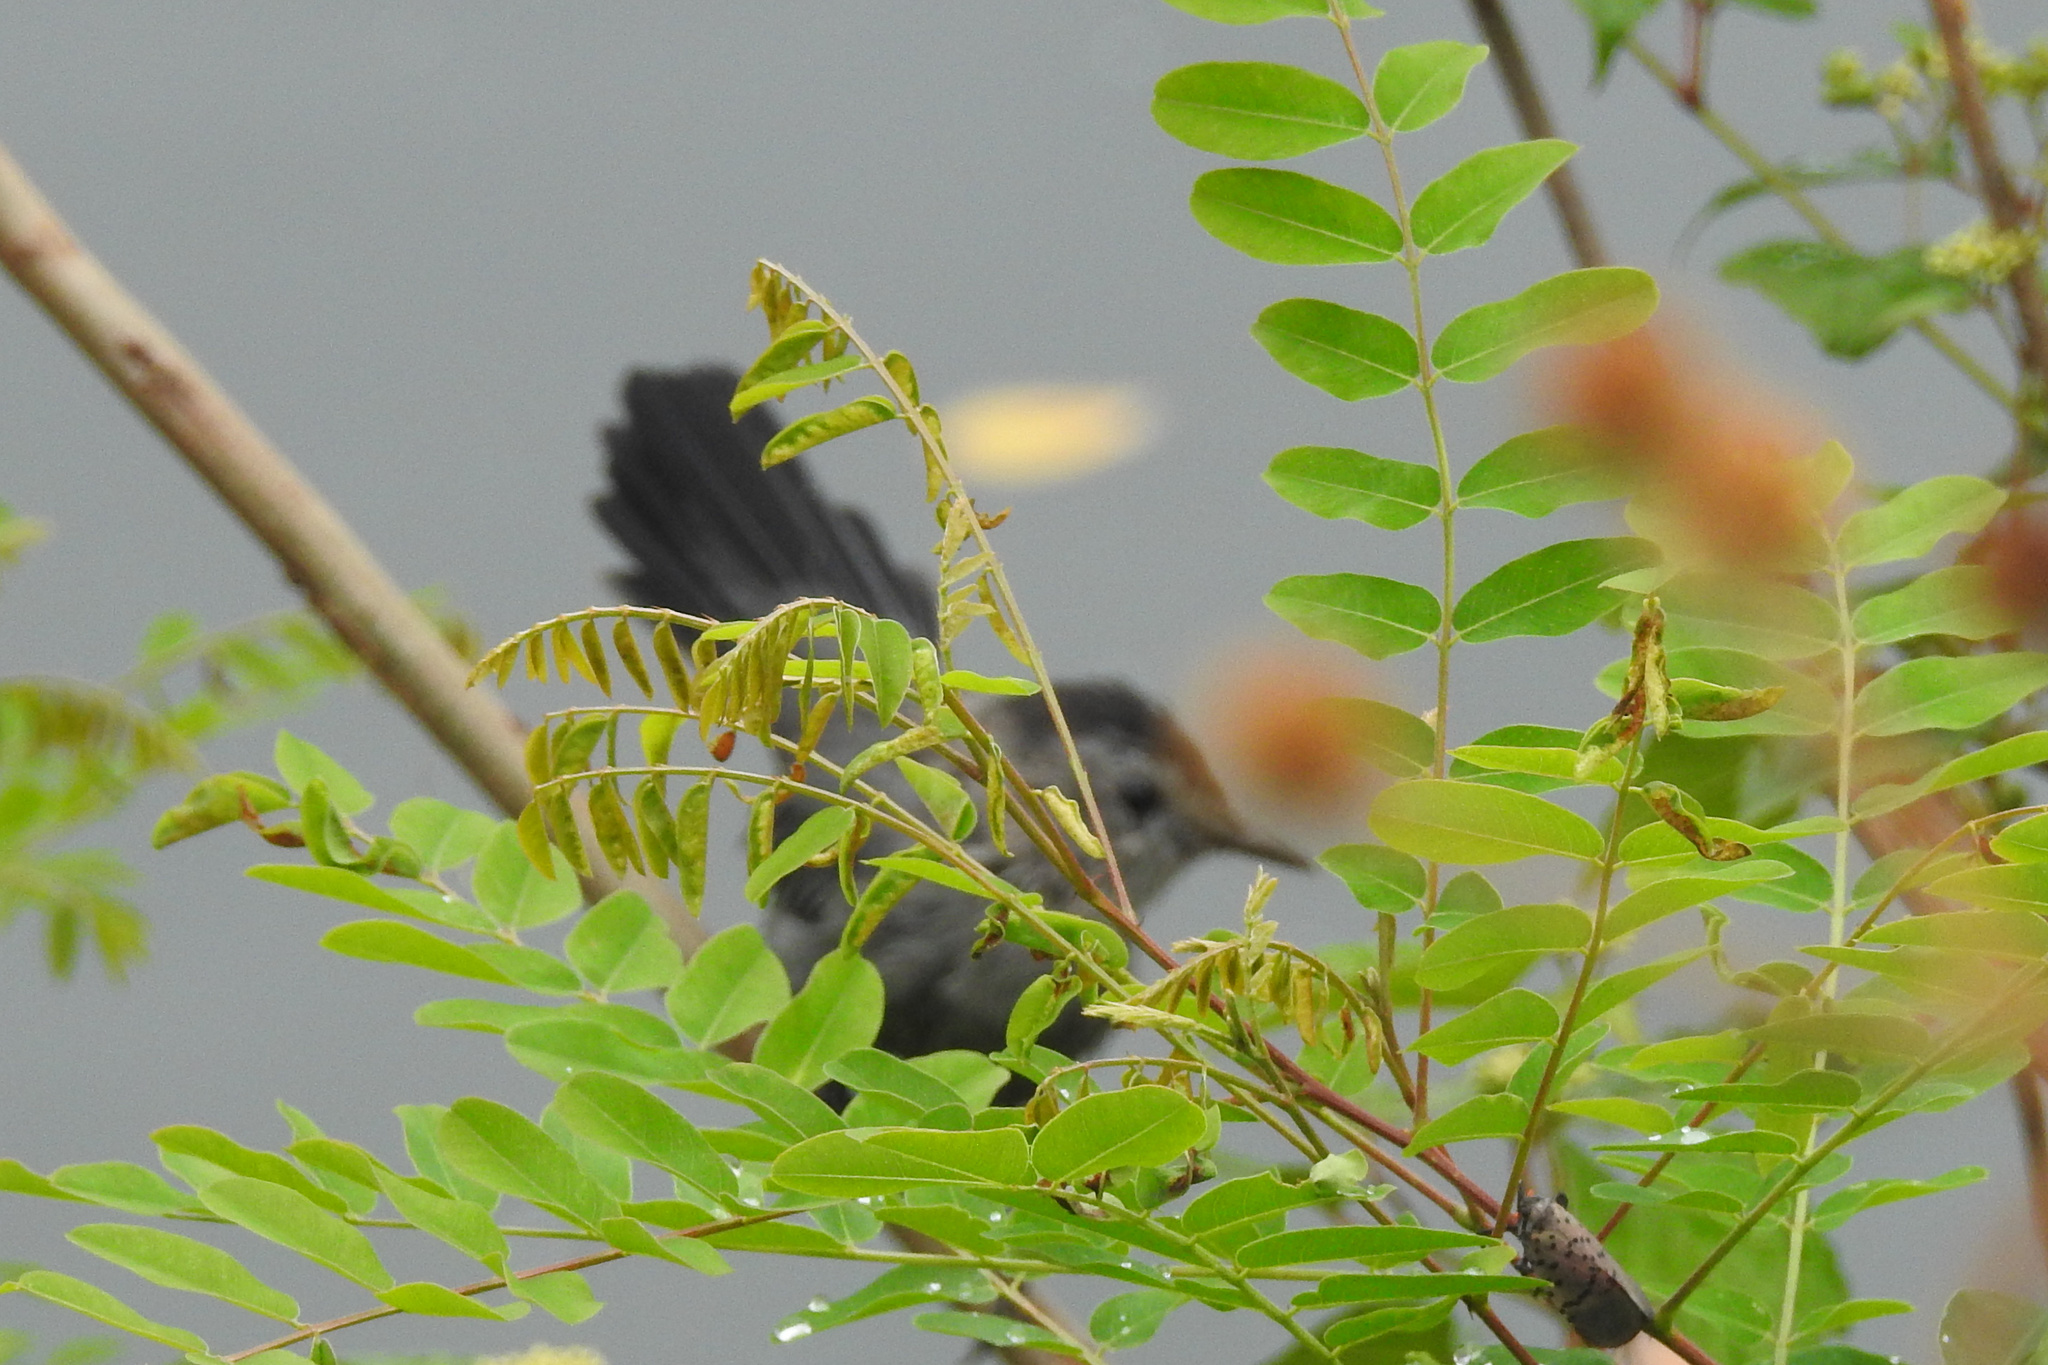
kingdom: Animalia
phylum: Chordata
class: Aves
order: Passeriformes
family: Mimidae
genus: Dumetella
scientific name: Dumetella carolinensis
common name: Gray catbird
